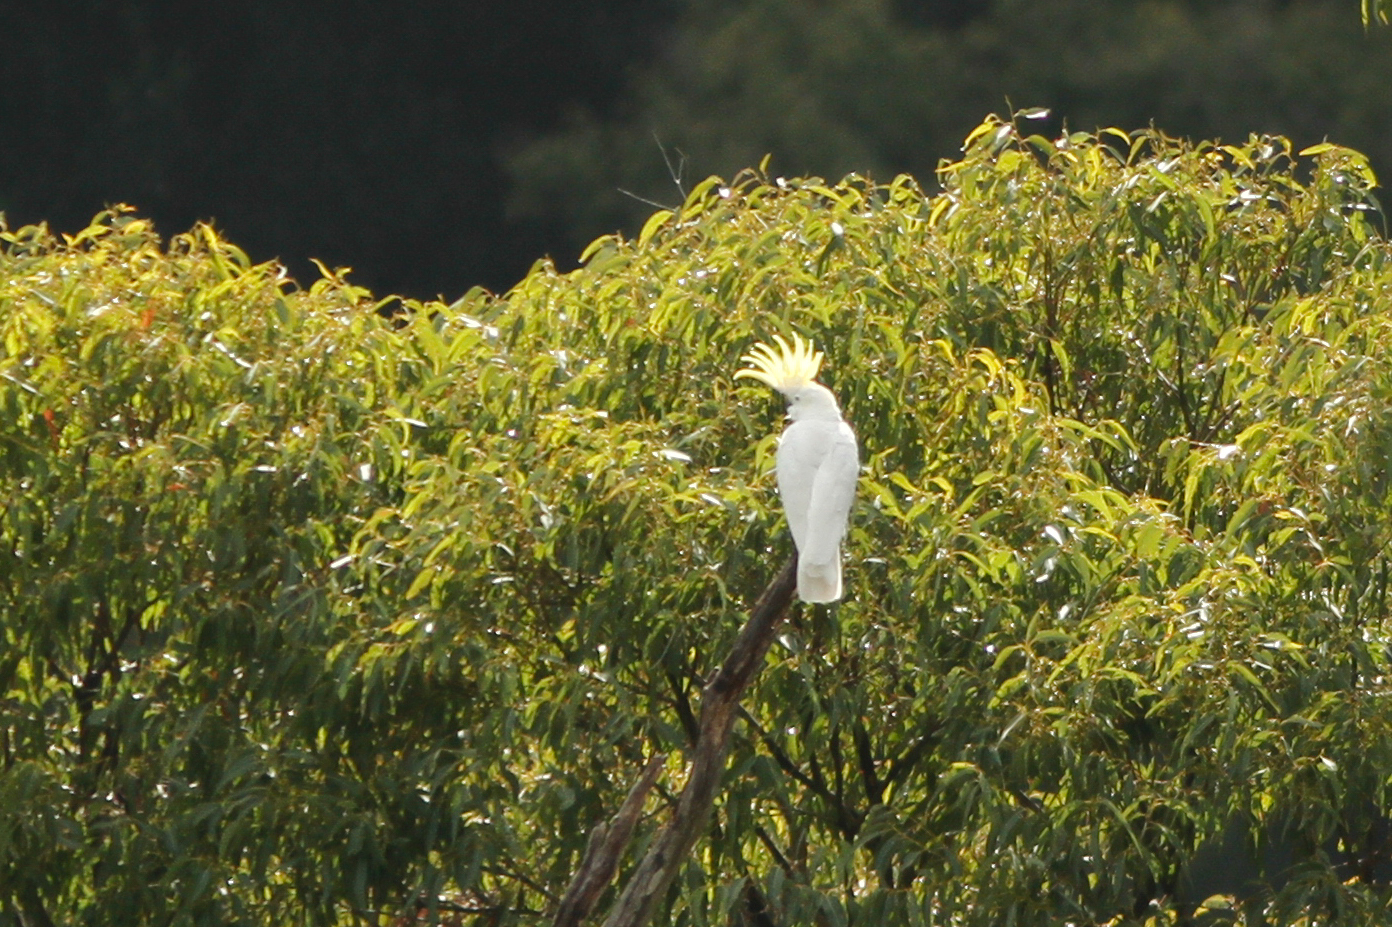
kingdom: Animalia
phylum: Chordata
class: Aves
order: Psittaciformes
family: Psittacidae
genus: Cacatua
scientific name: Cacatua galerita
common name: Sulphur-crested cockatoo
